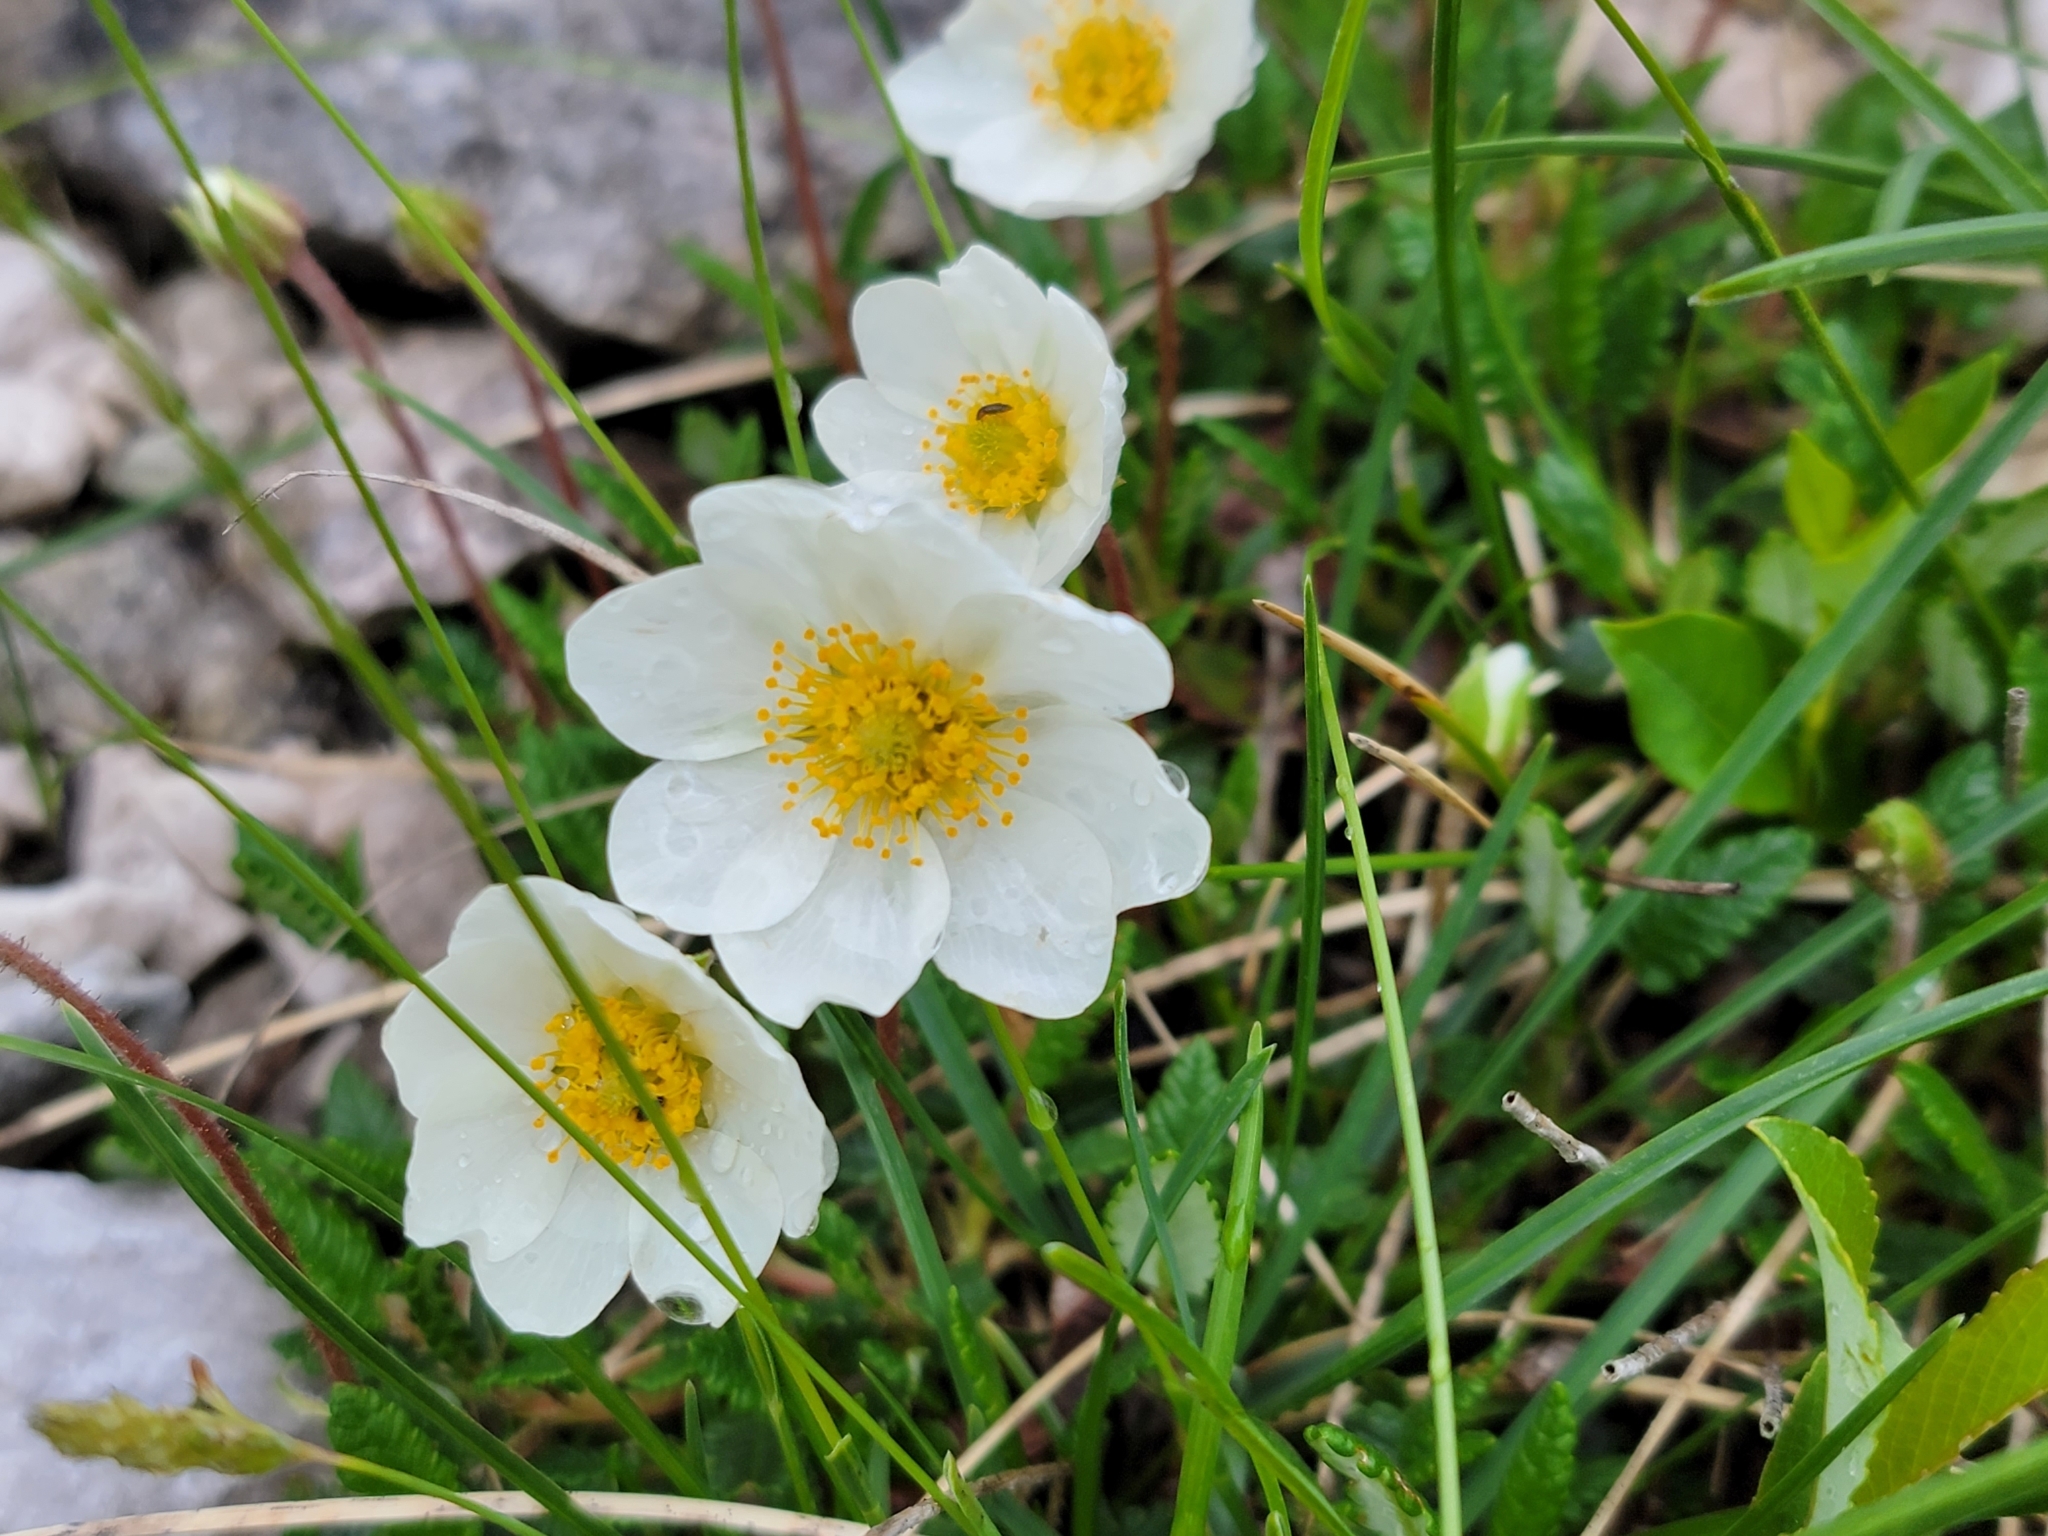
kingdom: Plantae
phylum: Tracheophyta
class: Magnoliopsida
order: Rosales
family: Rosaceae
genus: Dryas
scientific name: Dryas octopetala
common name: Eight-petal mountain-avens
